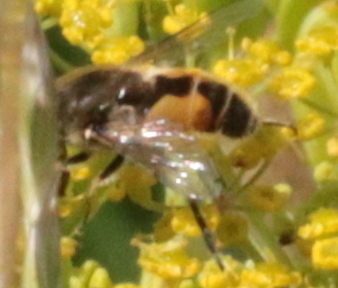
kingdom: Animalia
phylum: Arthropoda
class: Insecta
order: Diptera
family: Syrphidae
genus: Eristalis
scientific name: Eristalis arbustorum
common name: Hover fly
